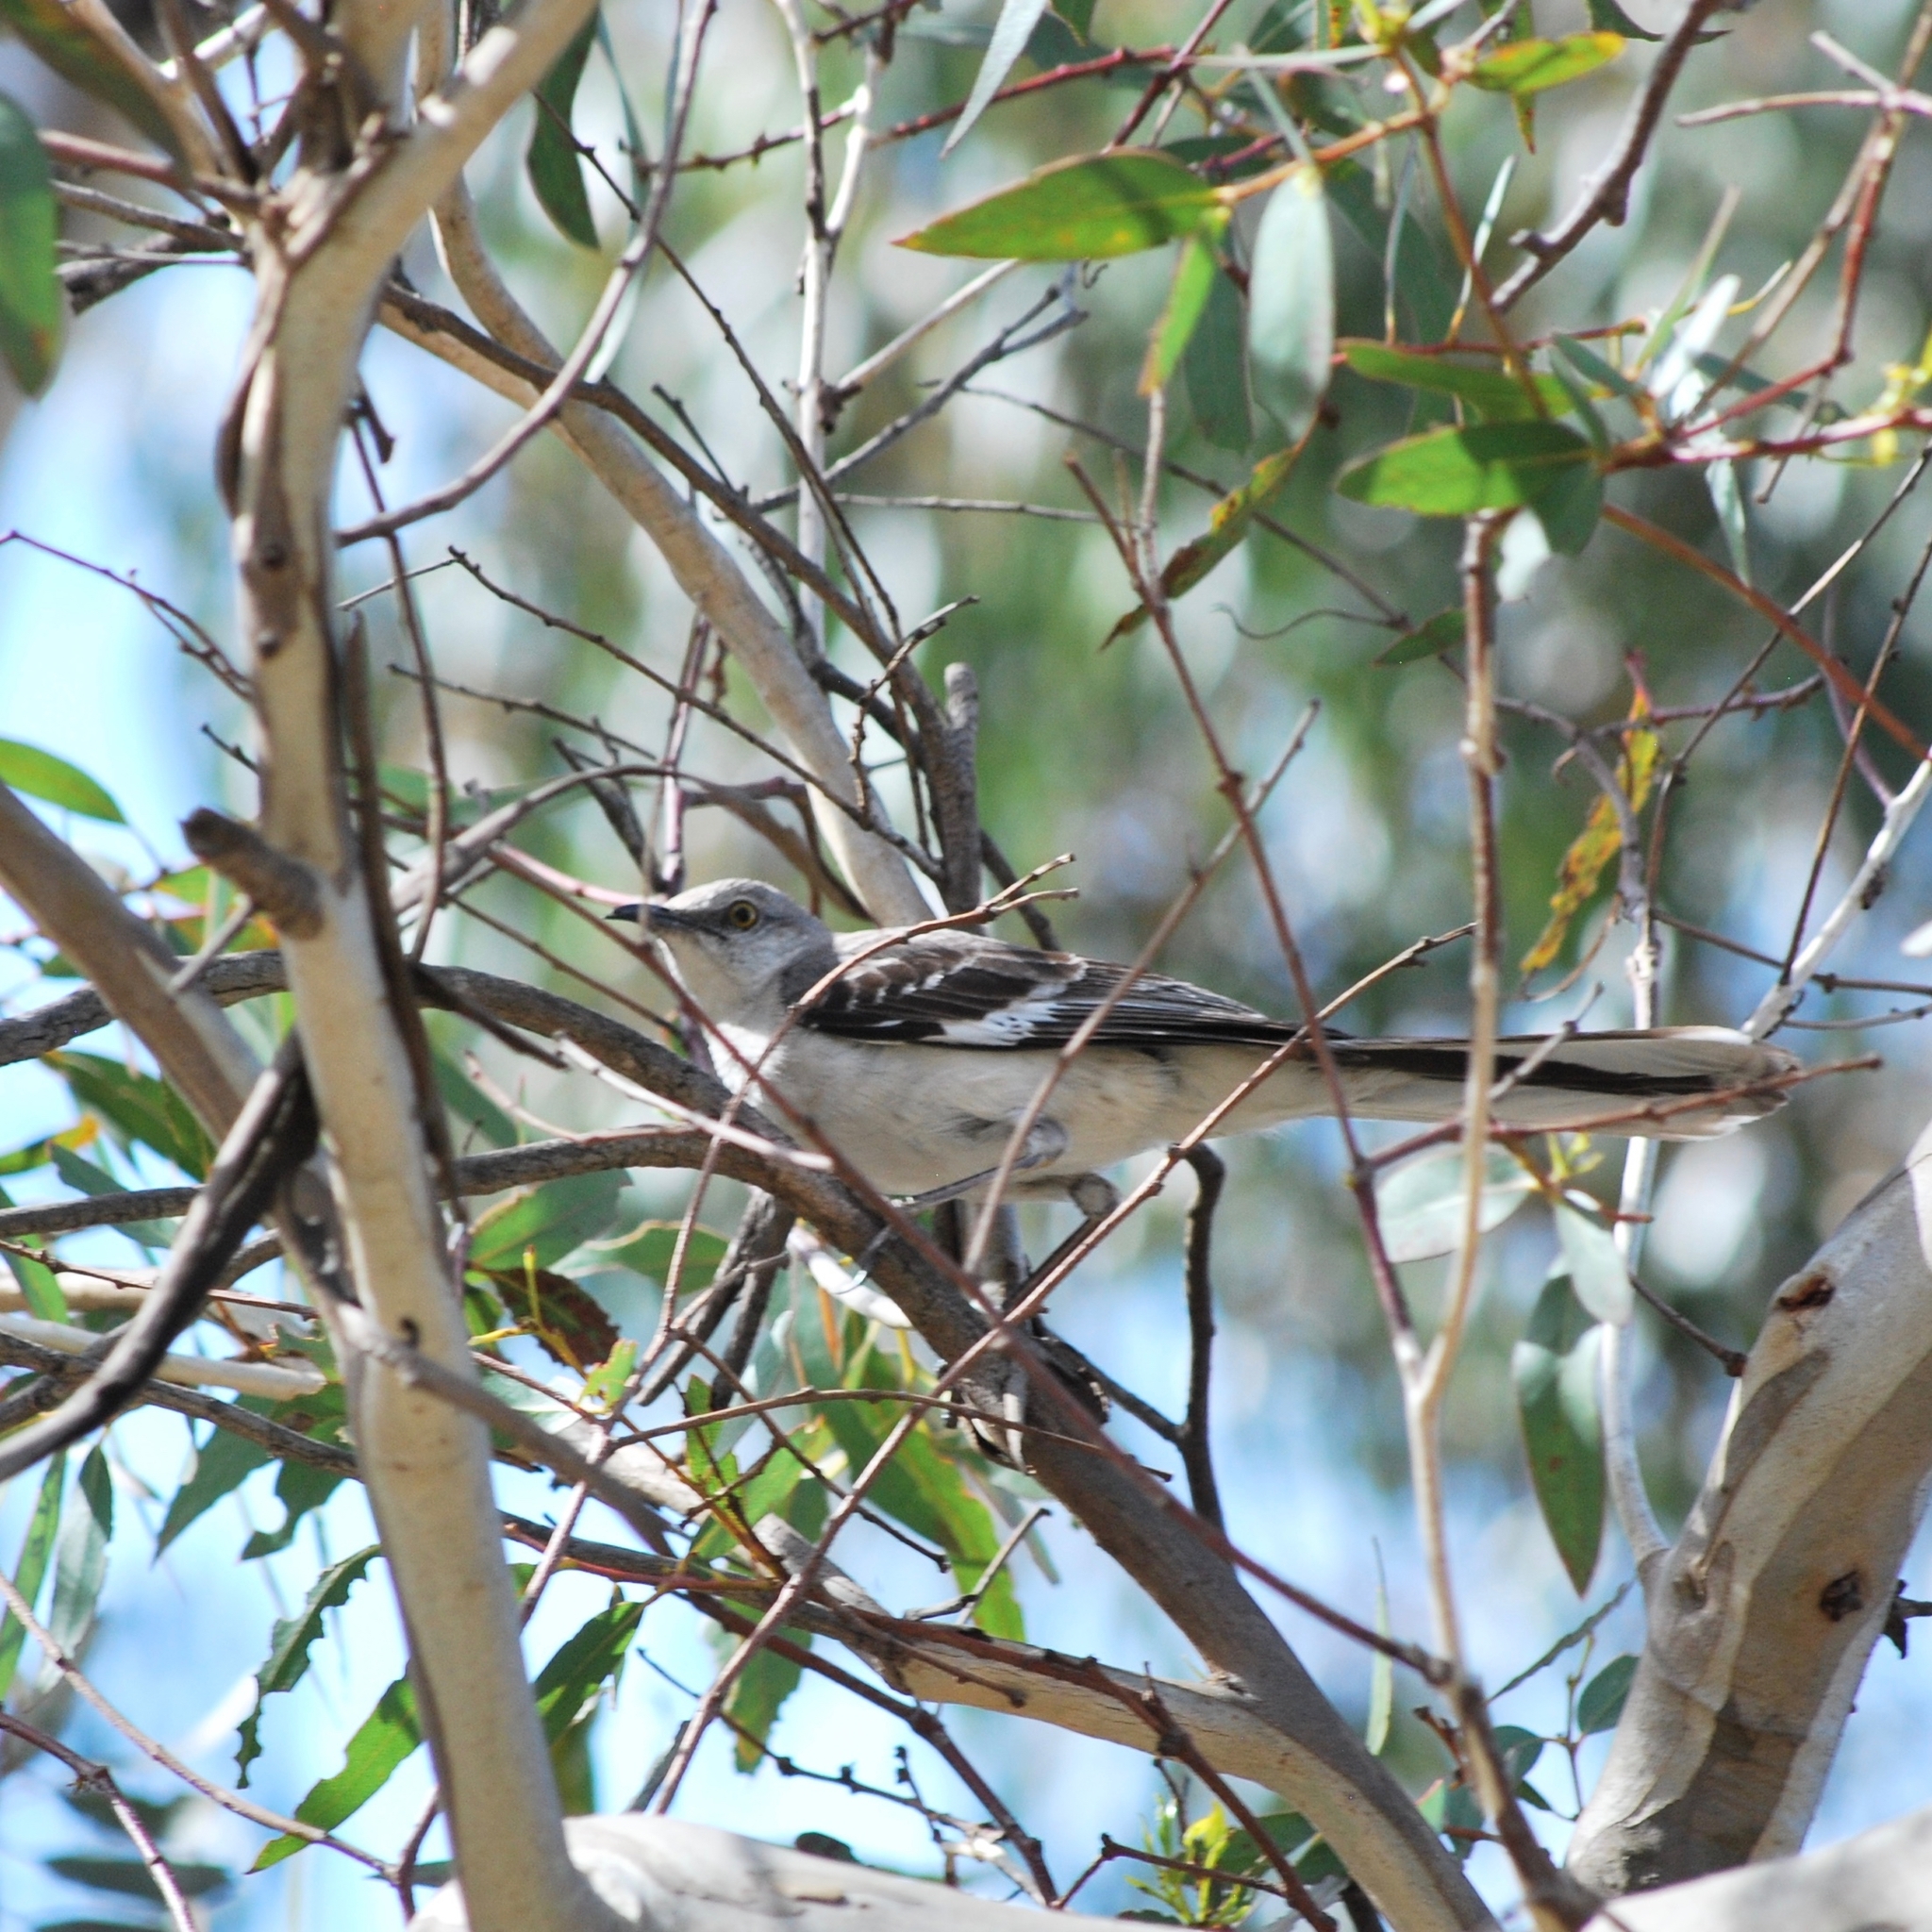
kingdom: Animalia
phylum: Chordata
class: Aves
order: Passeriformes
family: Mimidae
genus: Mimus
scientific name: Mimus polyglottos
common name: Northern mockingbird
